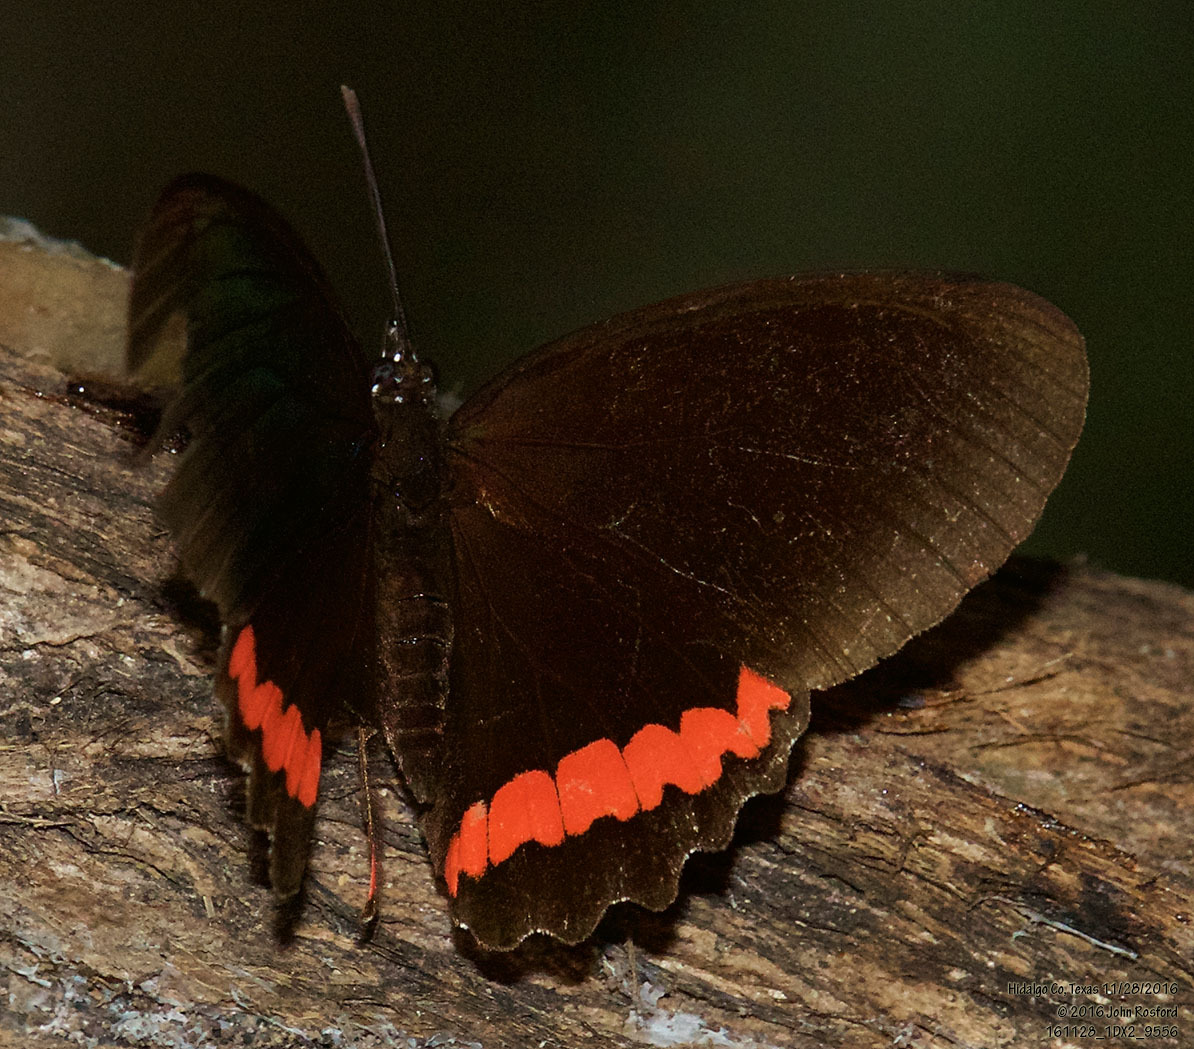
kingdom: Animalia
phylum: Arthropoda
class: Insecta
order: Lepidoptera
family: Nymphalidae
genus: Biblis
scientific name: Biblis aganisa
